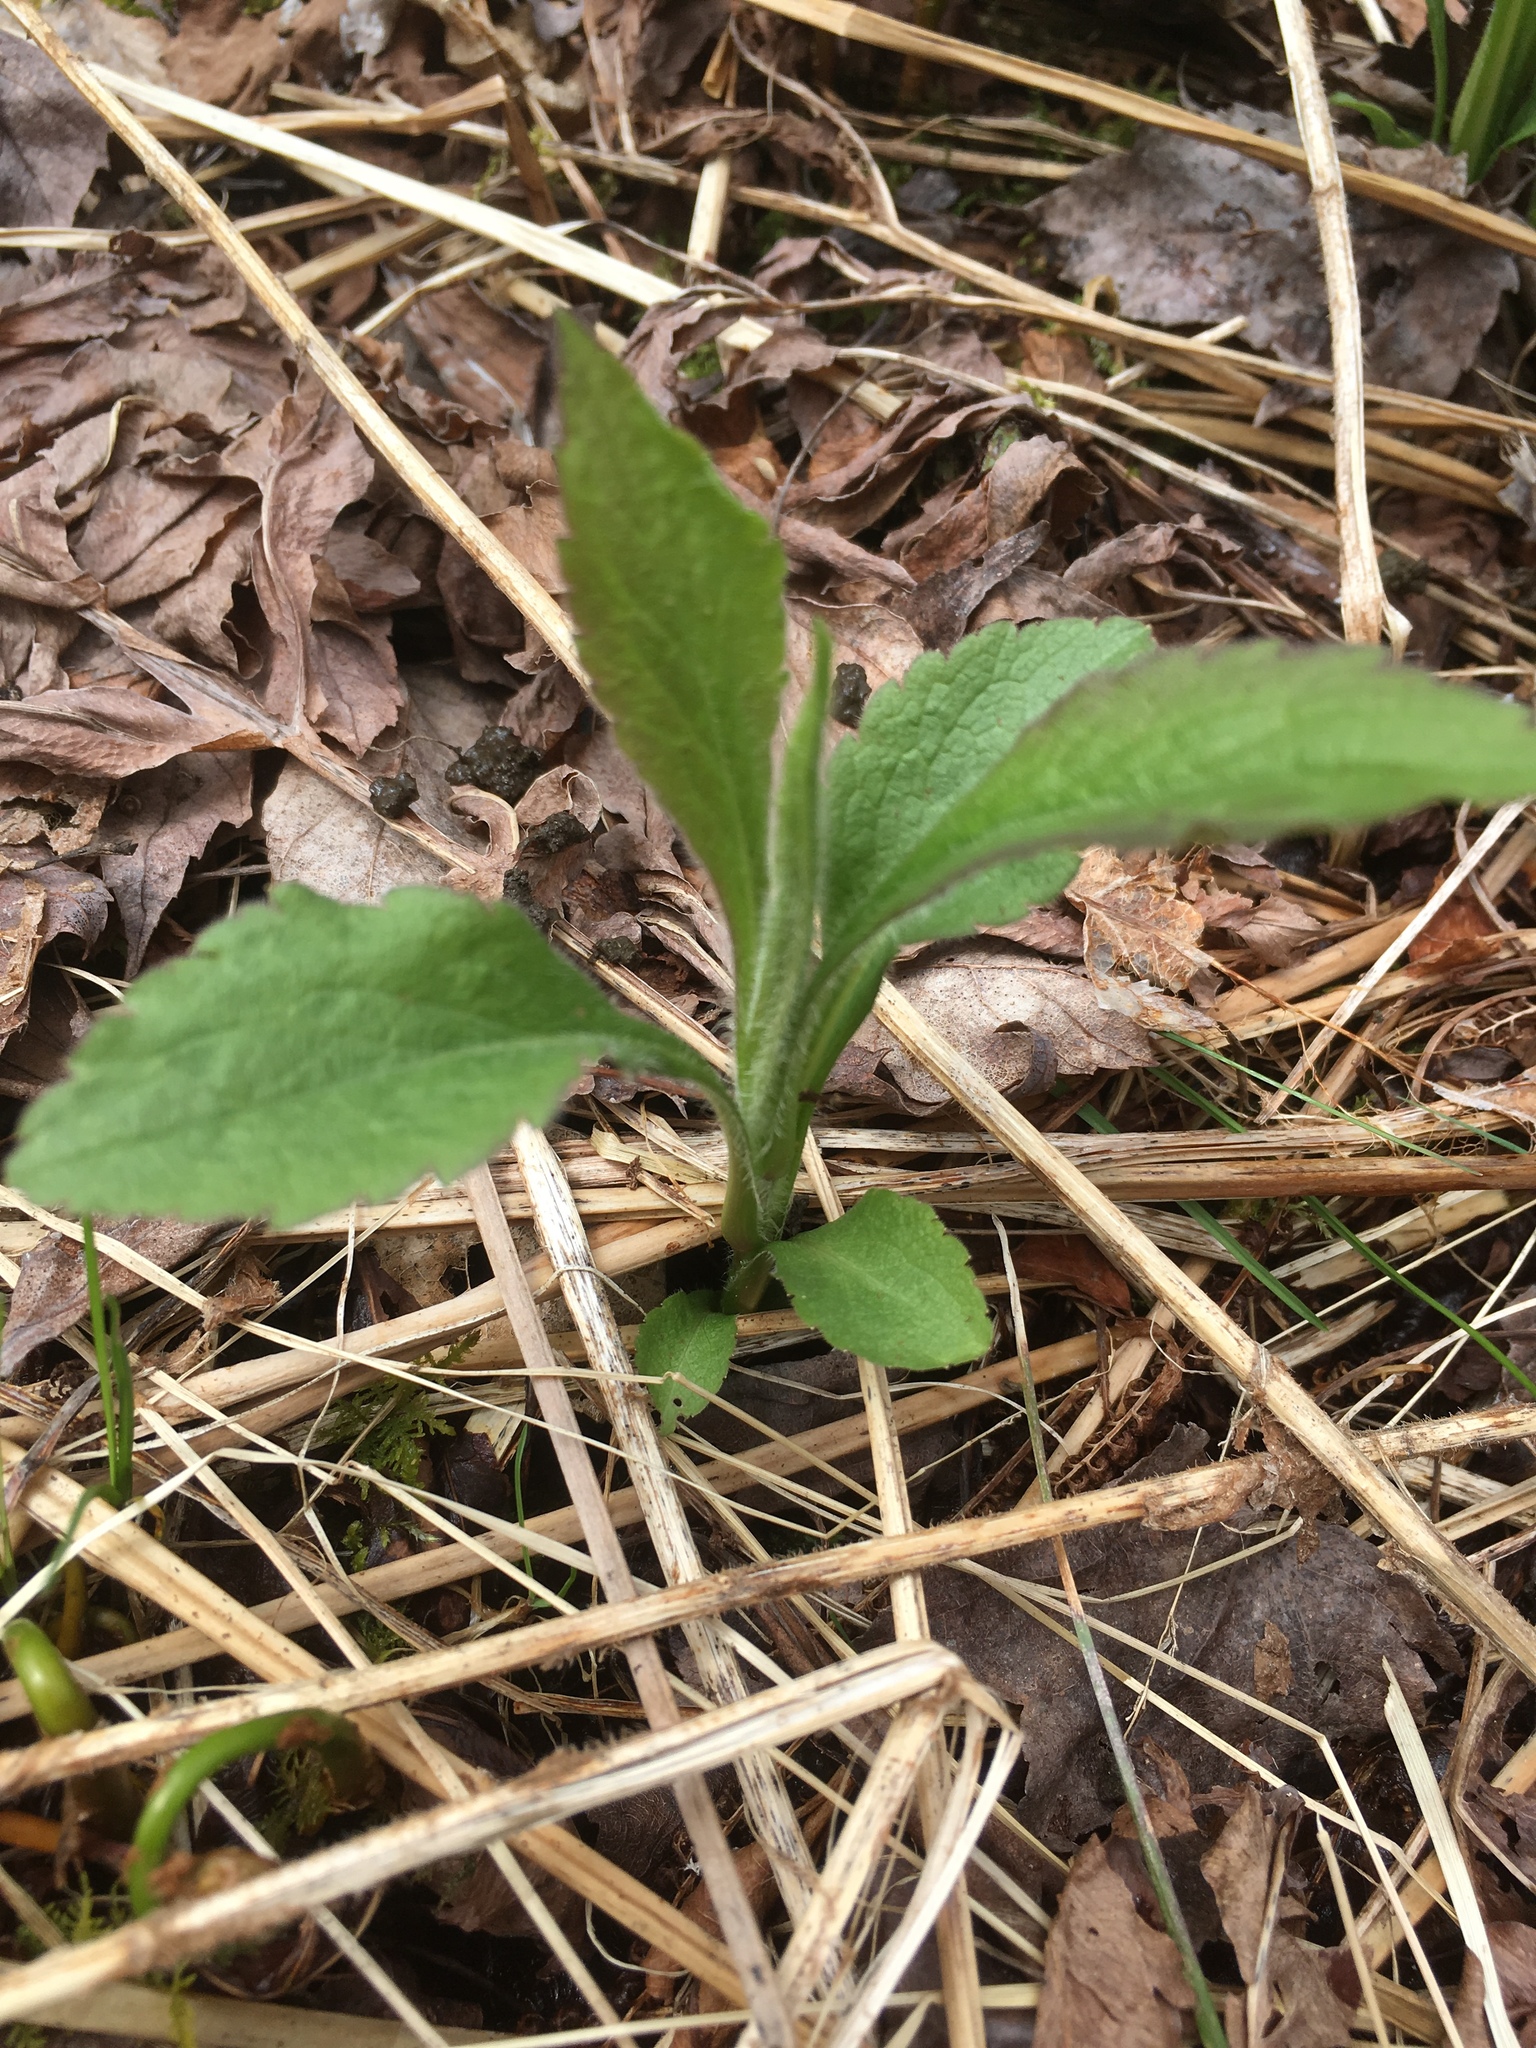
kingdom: Plantae
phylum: Tracheophyta
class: Magnoliopsida
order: Asterales
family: Asteraceae
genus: Solidago
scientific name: Solidago rugosa
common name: Rough-stemmed goldenrod
